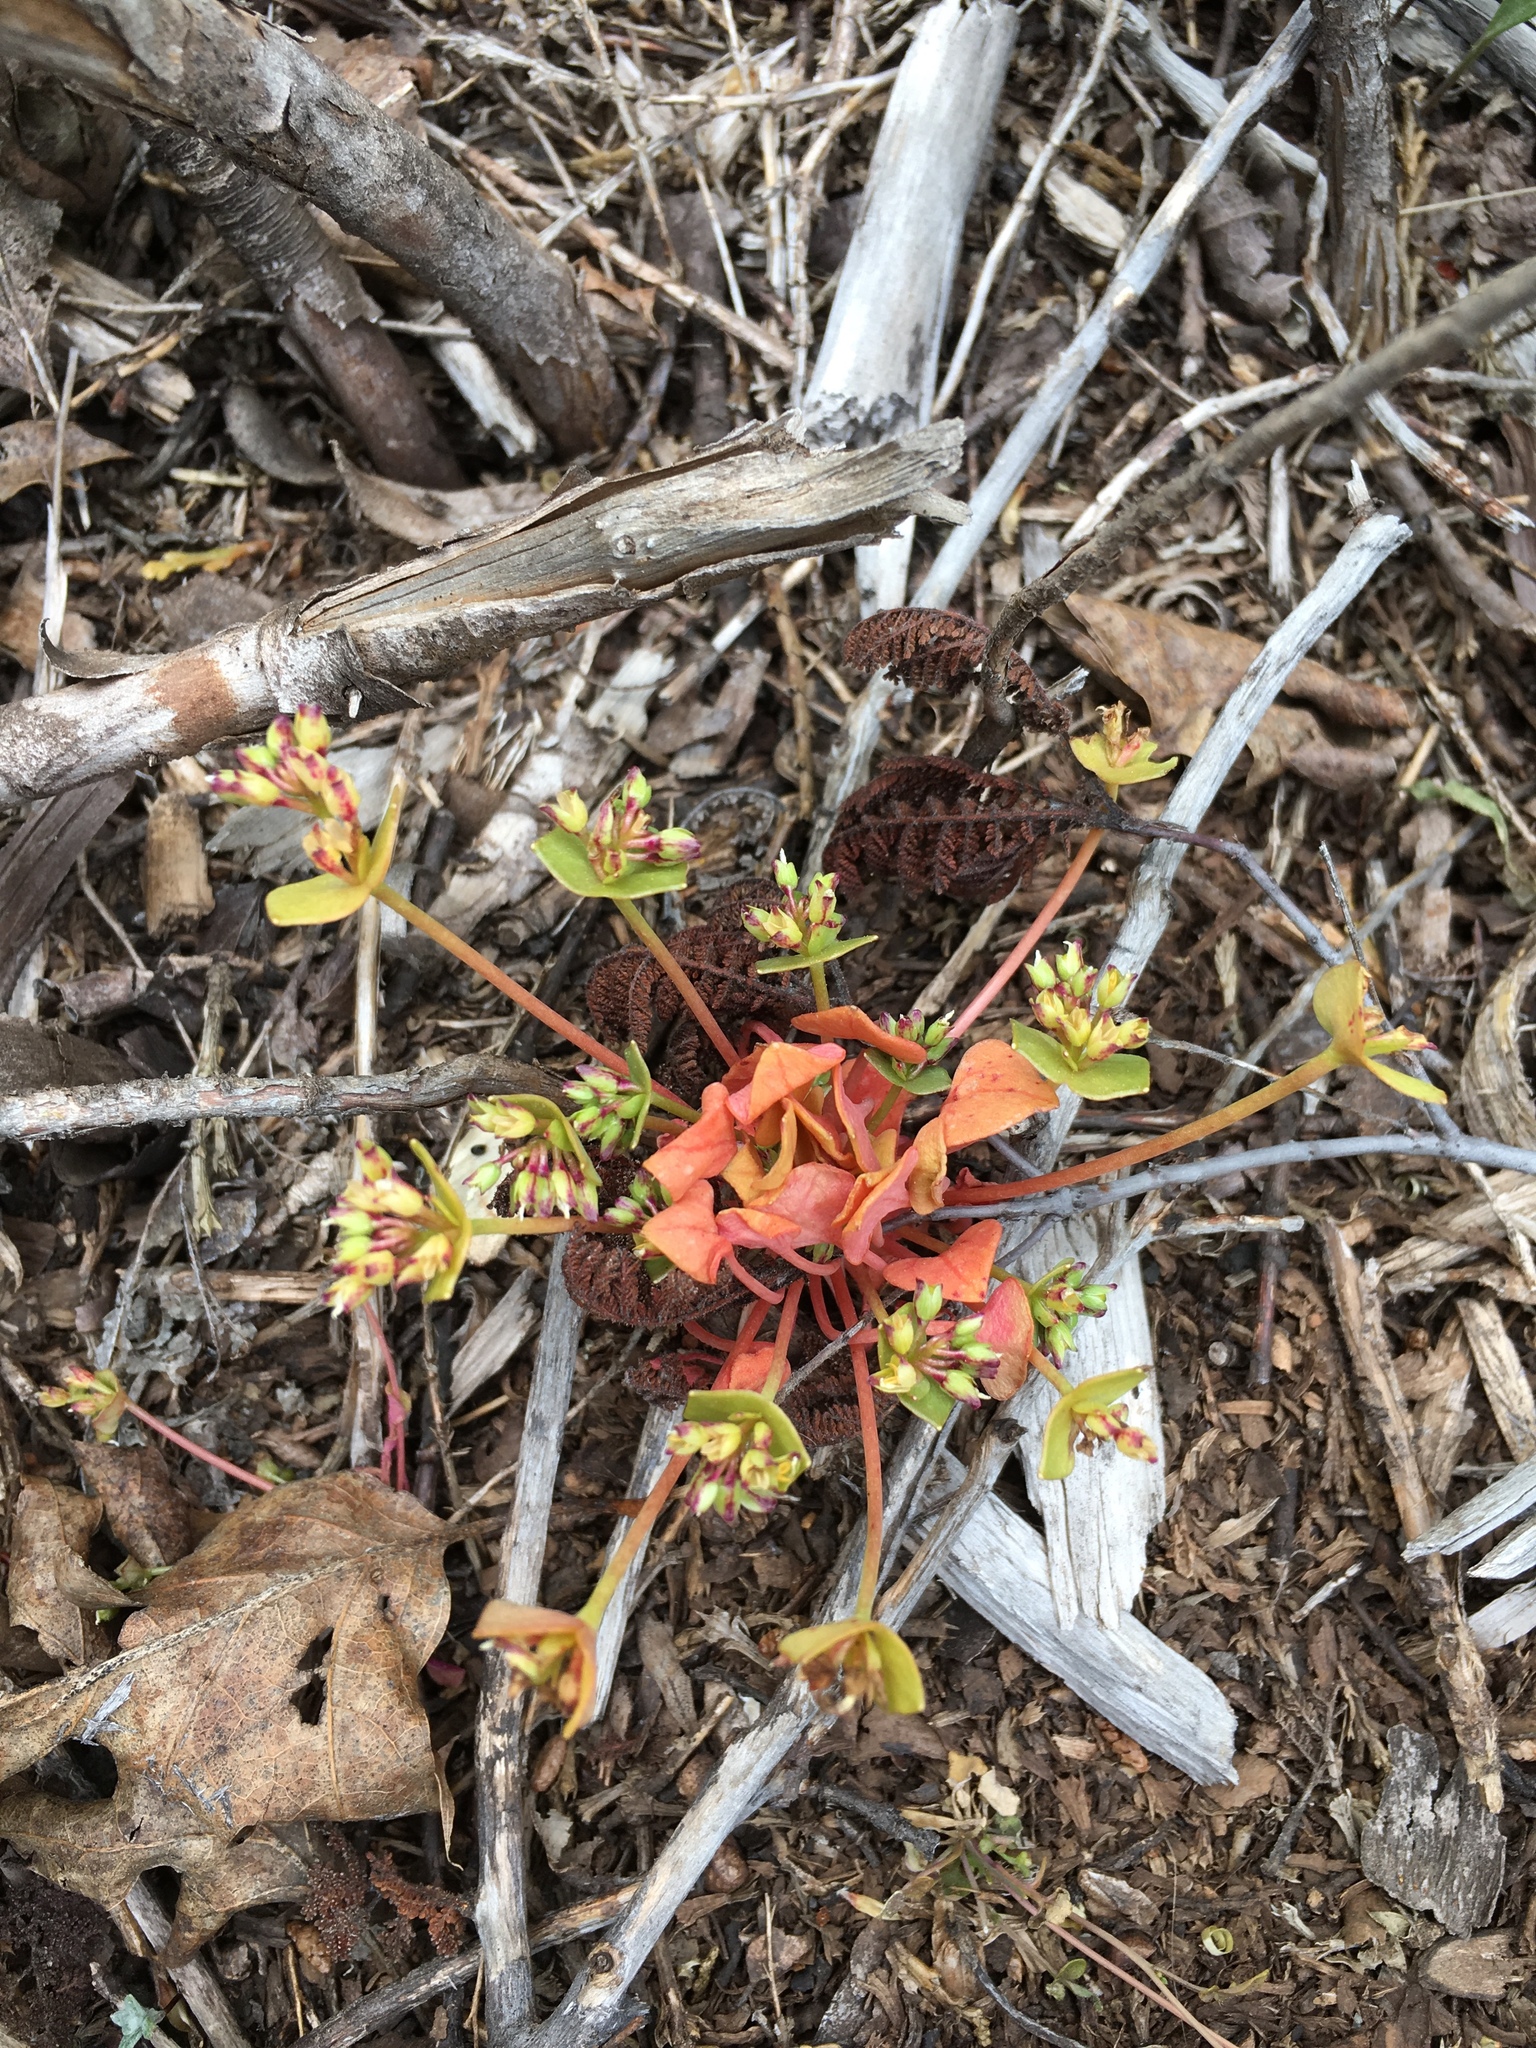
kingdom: Plantae
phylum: Tracheophyta
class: Magnoliopsida
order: Caryophyllales
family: Montiaceae
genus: Claytonia
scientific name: Claytonia rubra
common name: Erubescent miner's-lettuce
